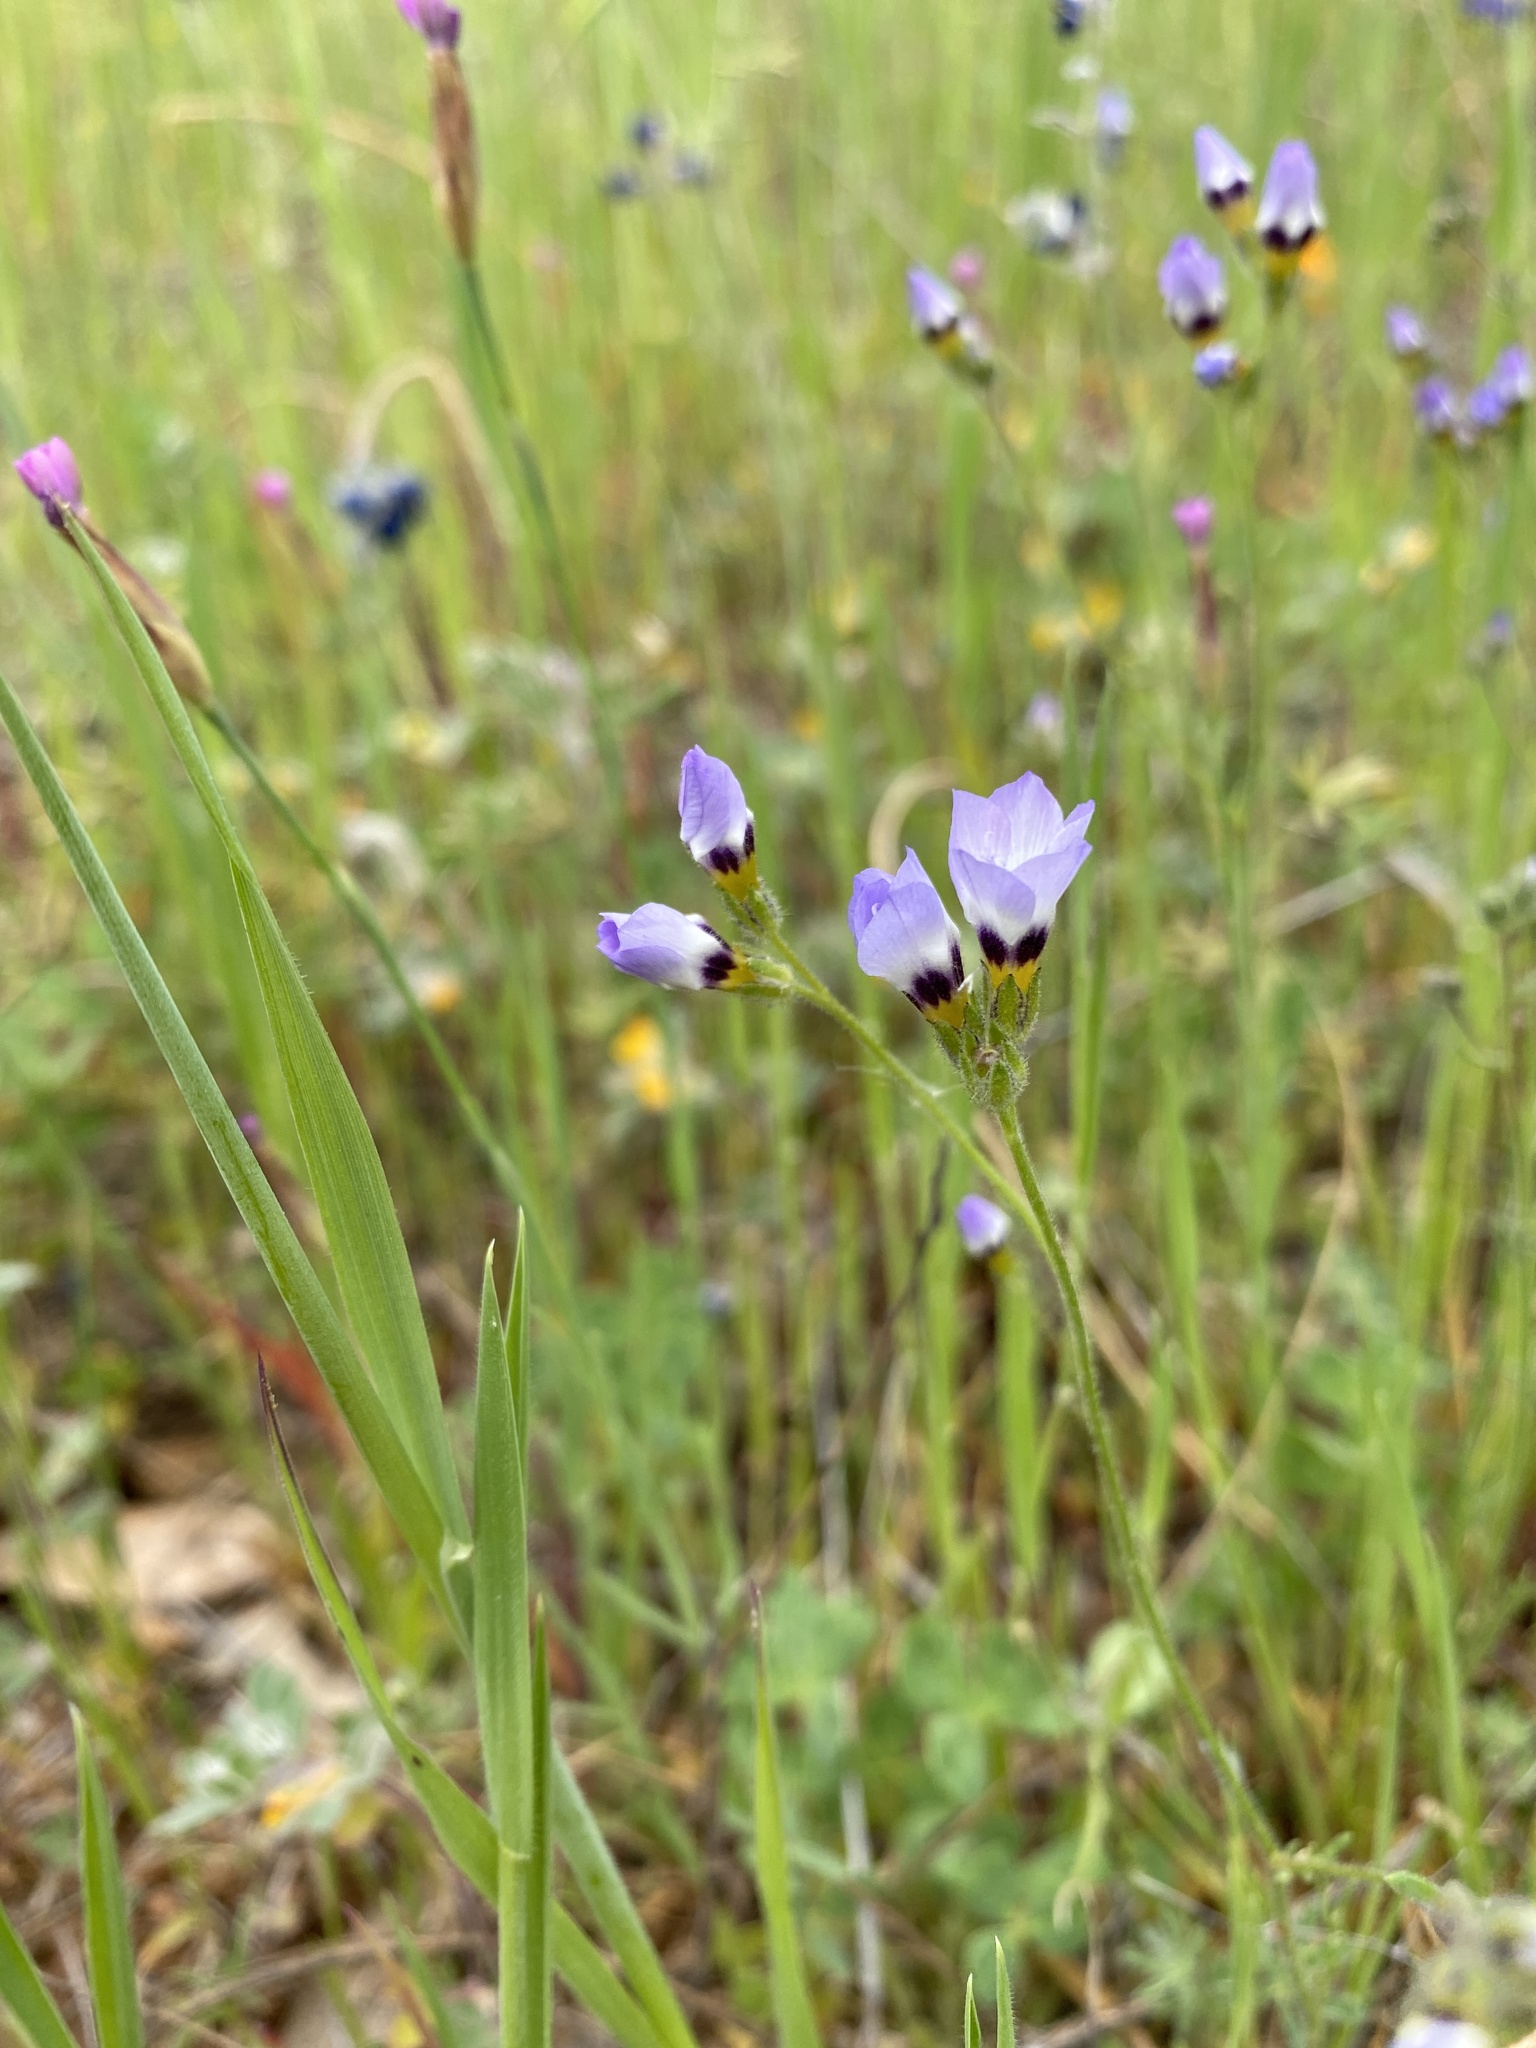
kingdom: Plantae
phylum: Tracheophyta
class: Magnoliopsida
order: Ericales
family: Polemoniaceae
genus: Gilia
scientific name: Gilia tricolor
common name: Bird's-eyes
